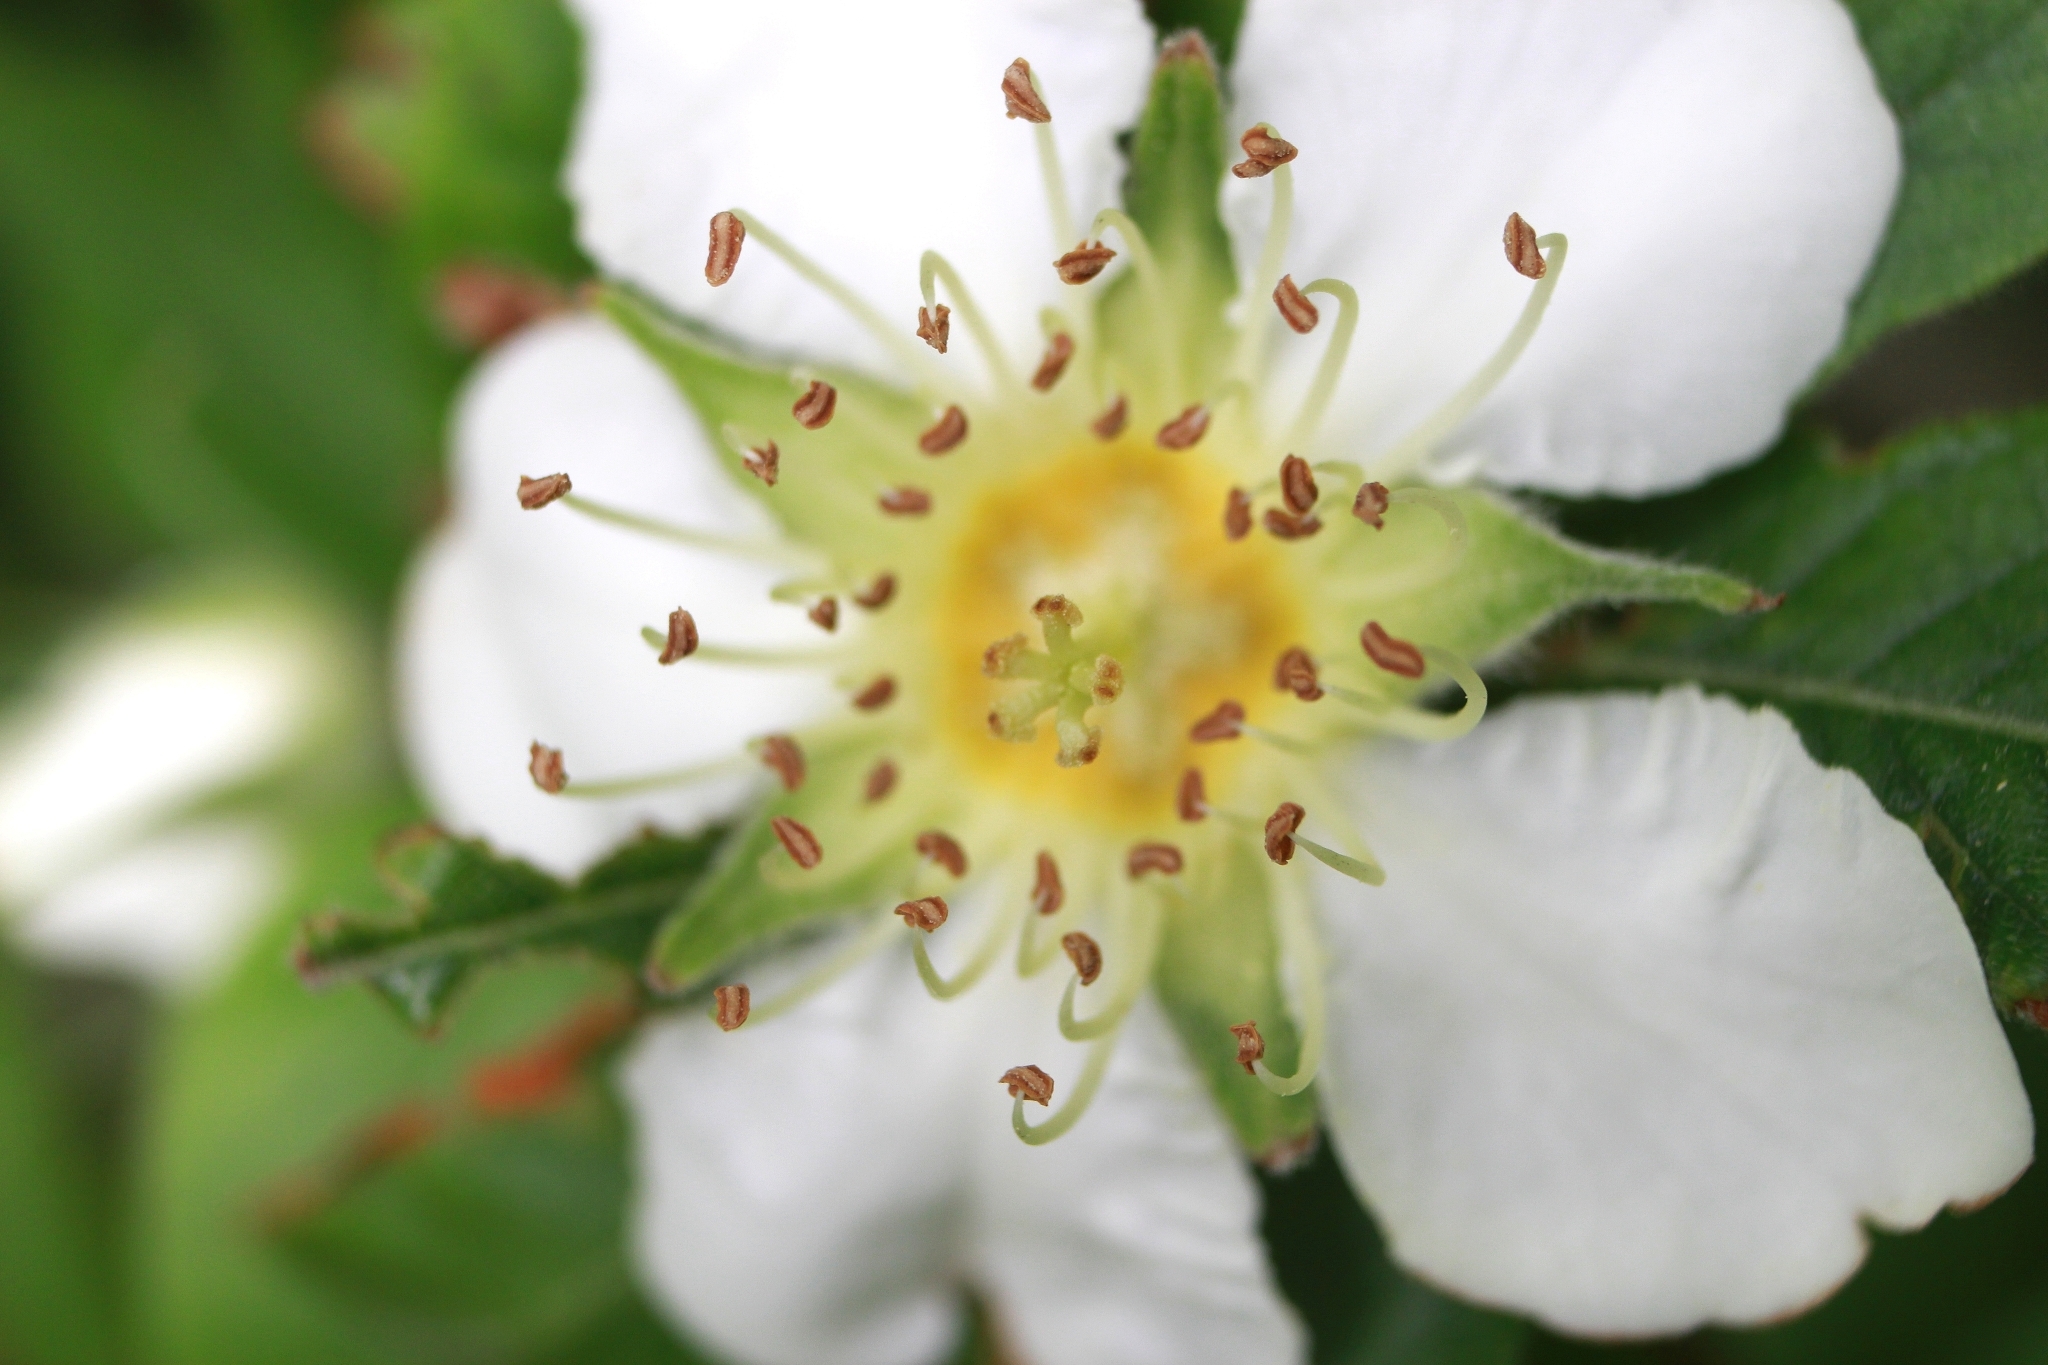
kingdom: Plantae
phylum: Tracheophyta
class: Magnoliopsida
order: Rosales
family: Rosaceae
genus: Mespilus
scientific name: Mespilus germanica
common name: Medlar
